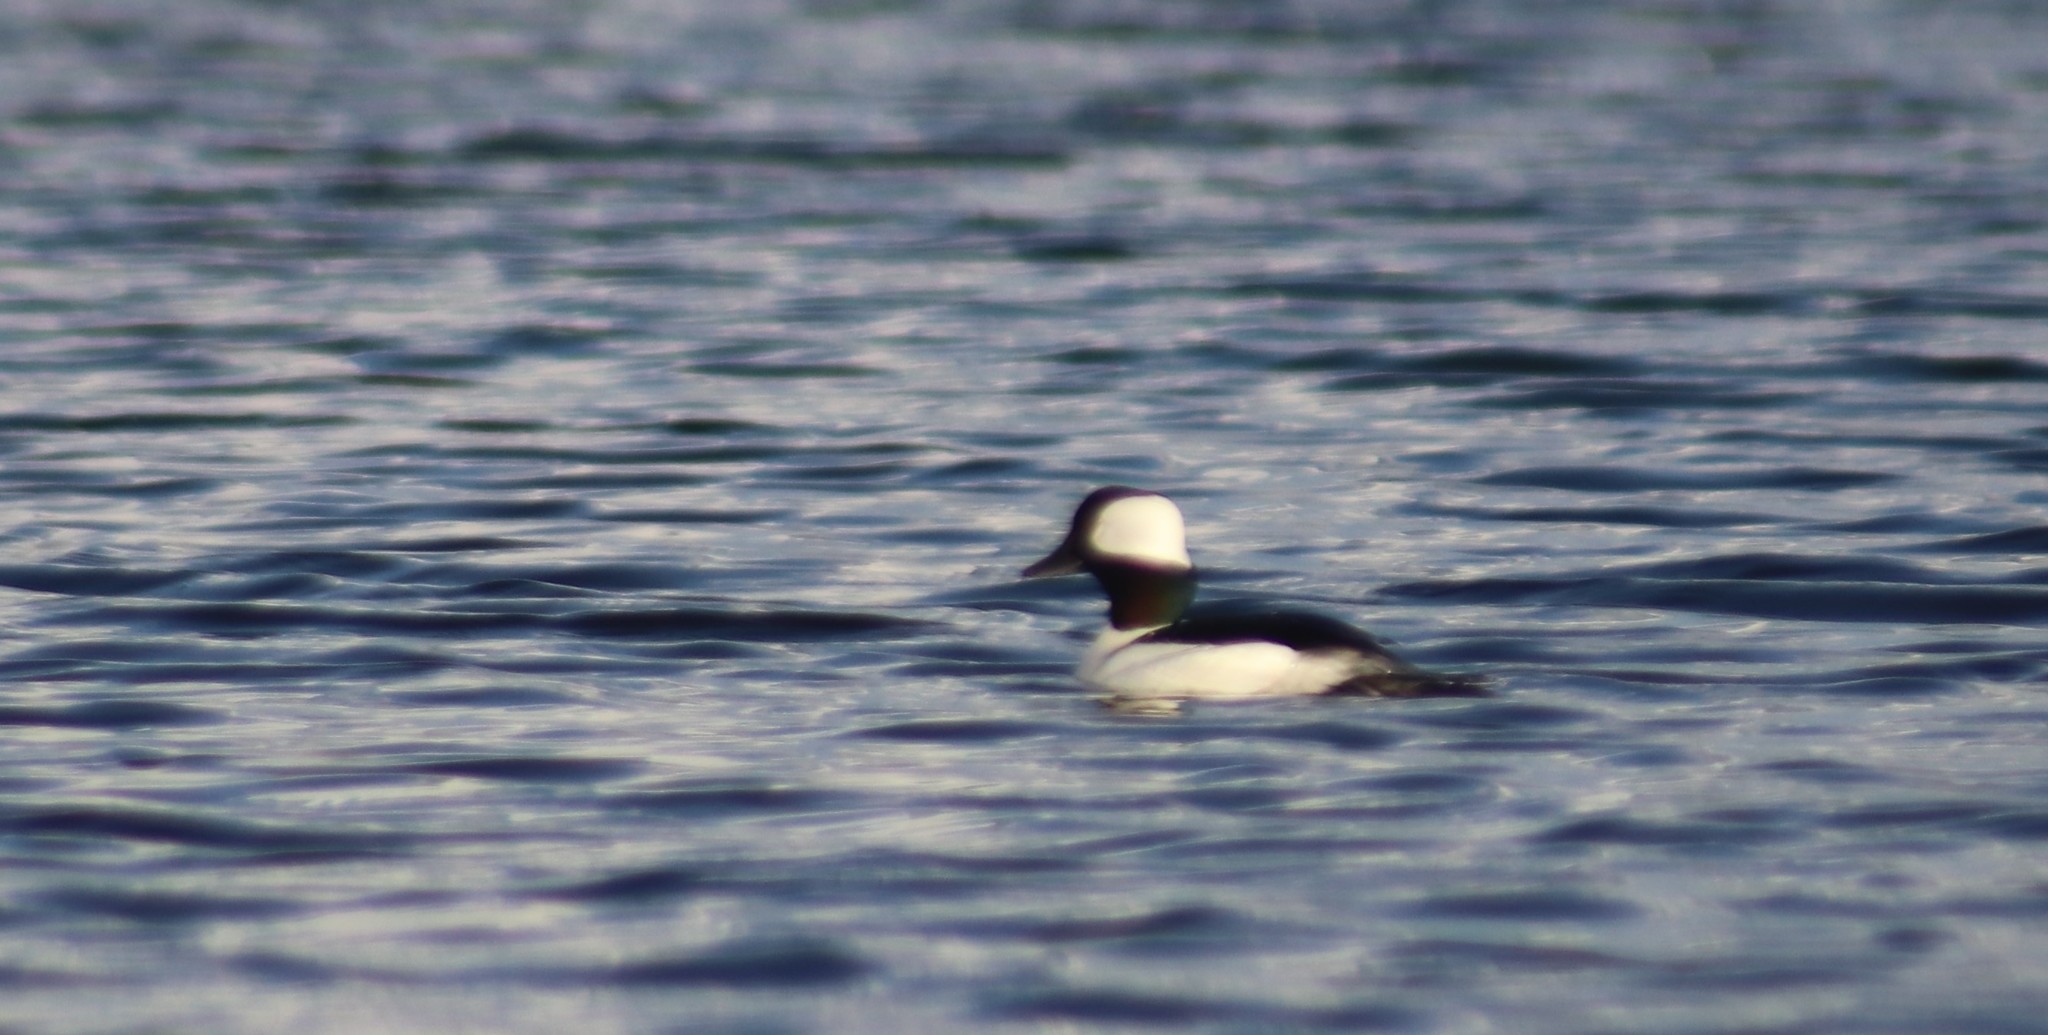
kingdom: Animalia
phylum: Chordata
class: Aves
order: Anseriformes
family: Anatidae
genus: Bucephala
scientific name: Bucephala albeola
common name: Bufflehead
